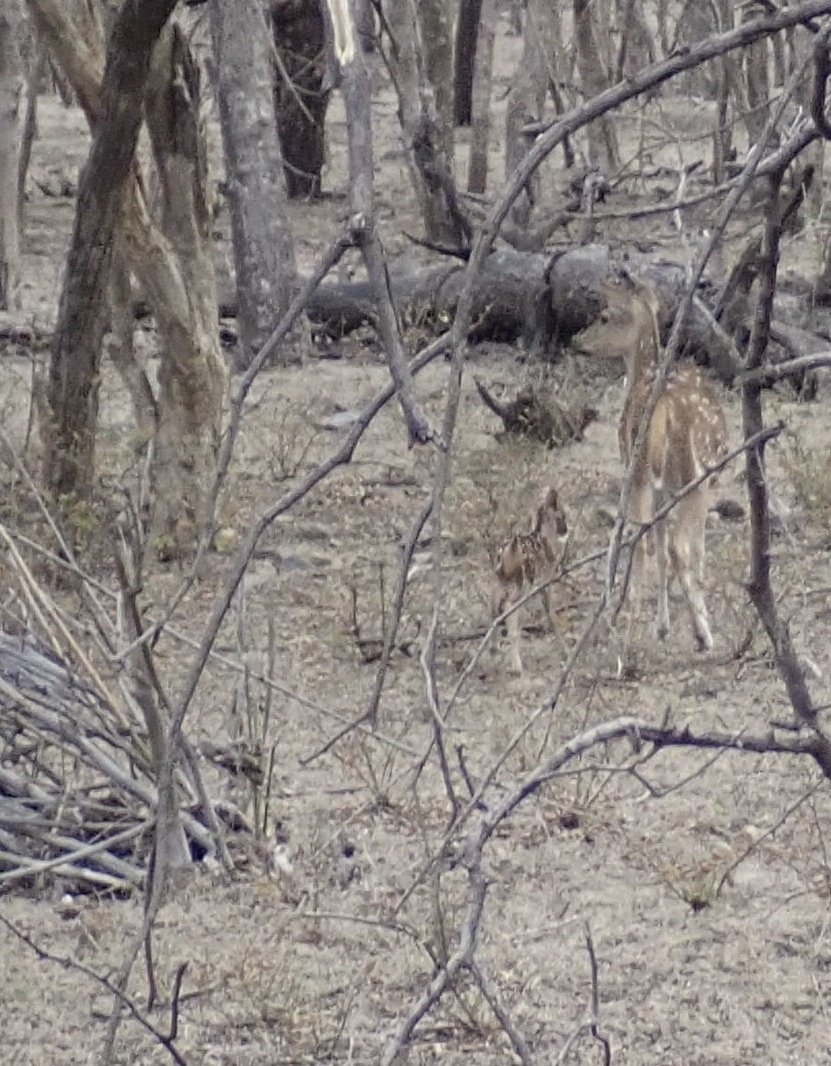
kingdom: Animalia
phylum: Chordata
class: Mammalia
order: Artiodactyla
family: Cervidae
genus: Axis
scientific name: Axis axis
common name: Chital
